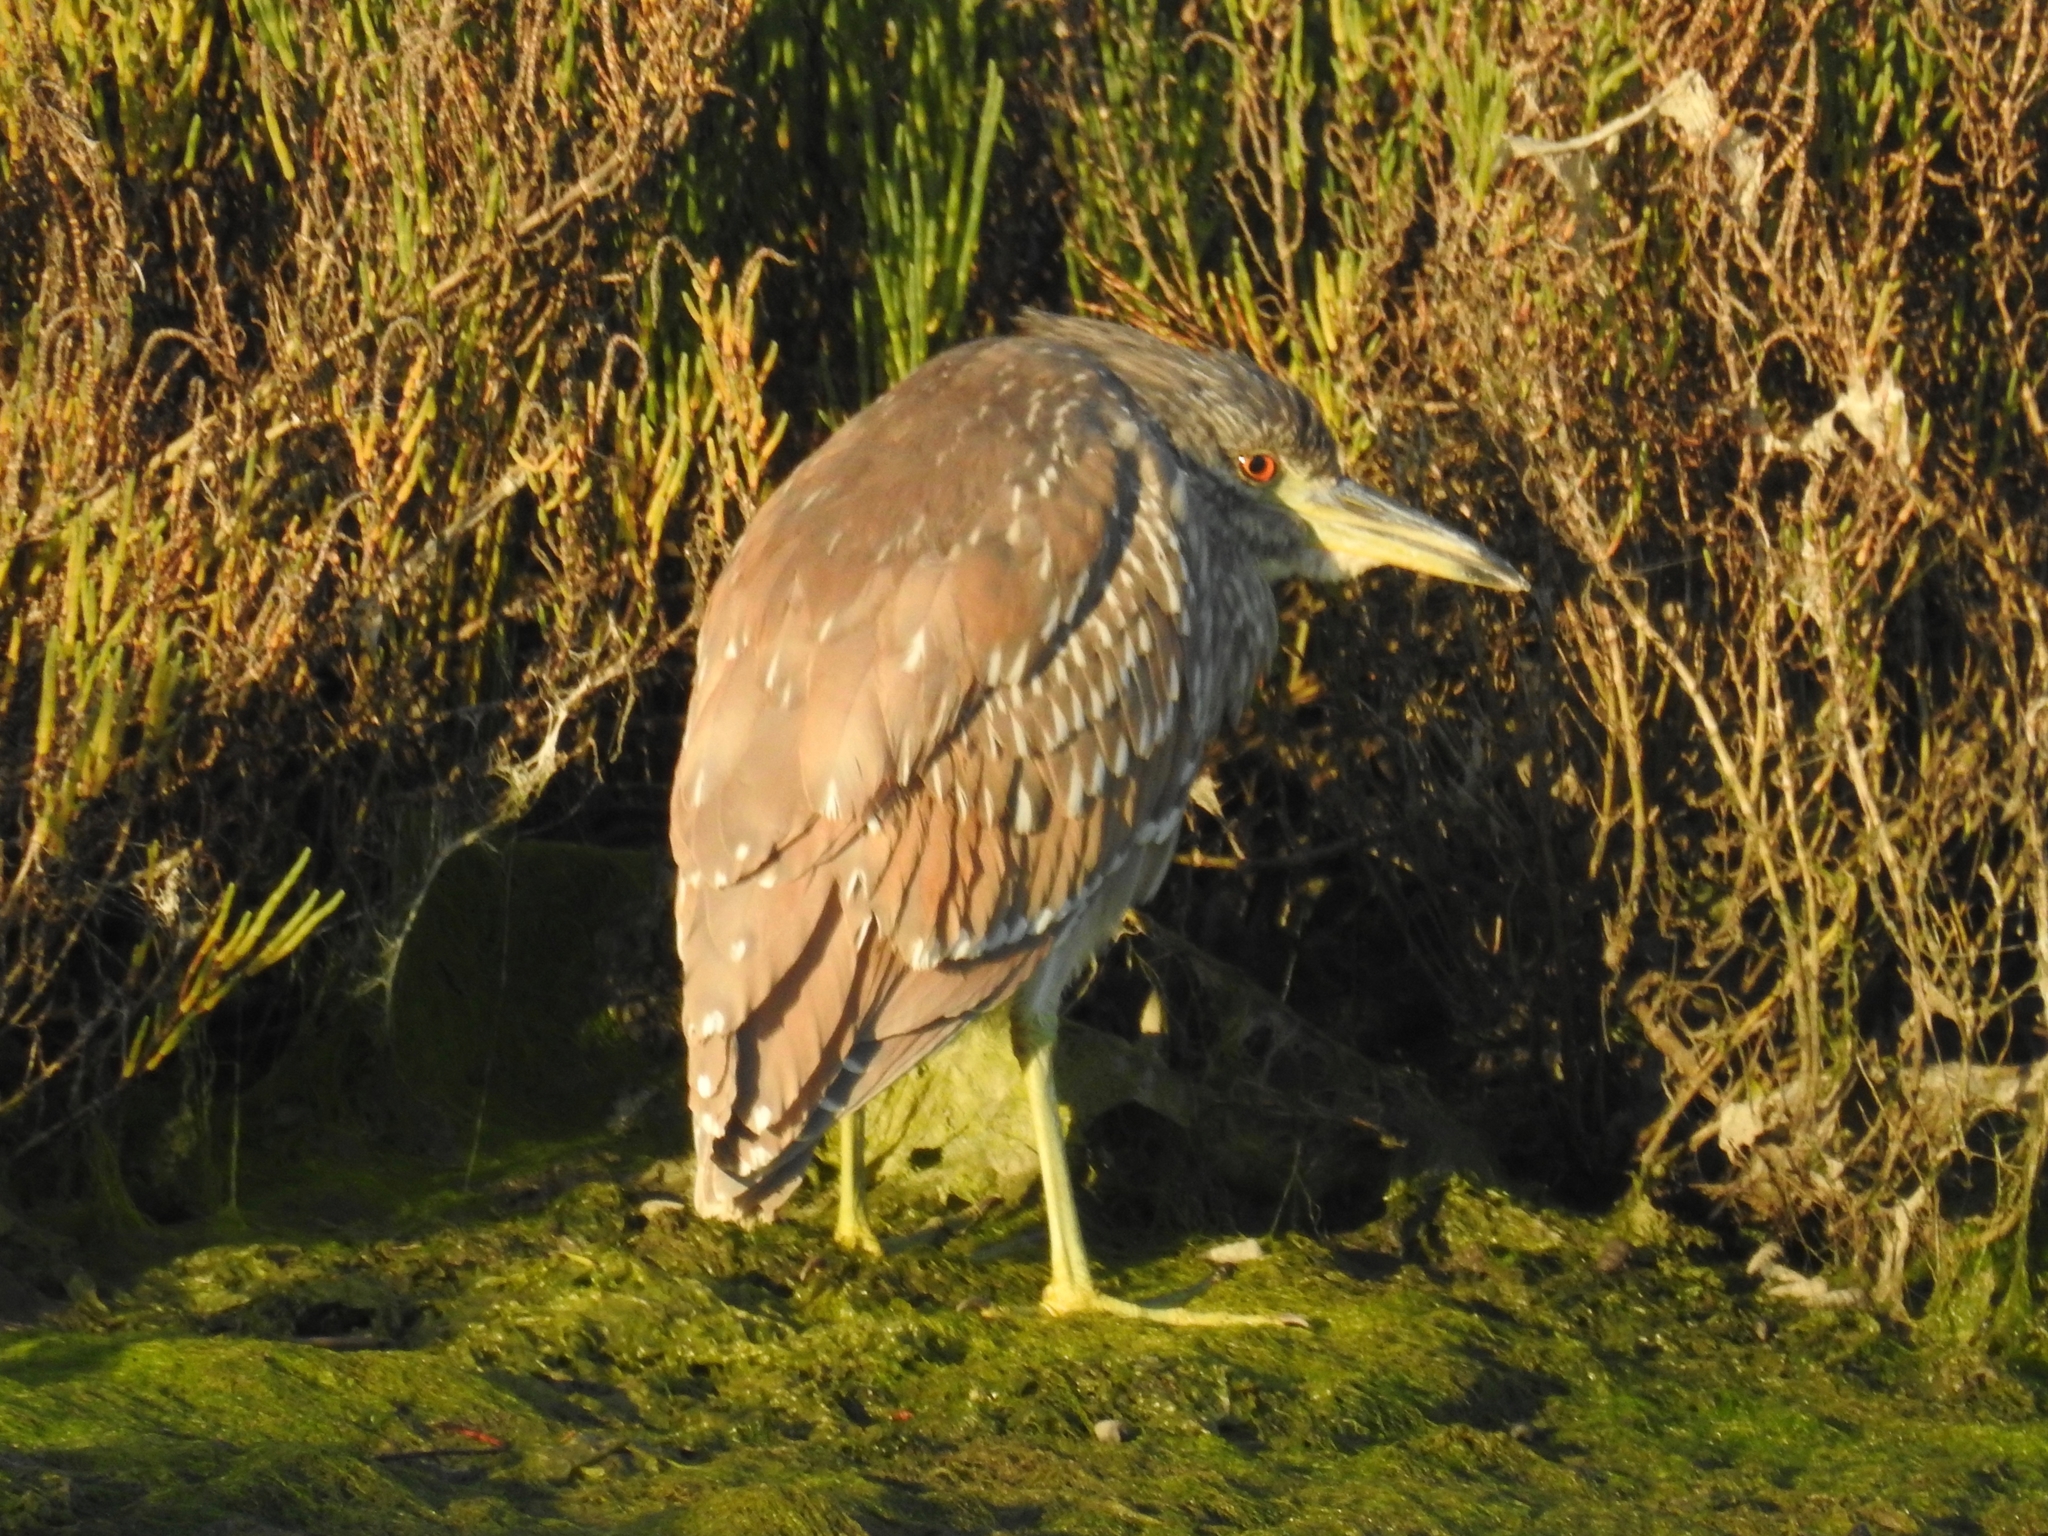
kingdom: Animalia
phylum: Chordata
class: Aves
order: Pelecaniformes
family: Ardeidae
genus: Nycticorax
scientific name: Nycticorax nycticorax
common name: Black-crowned night heron
